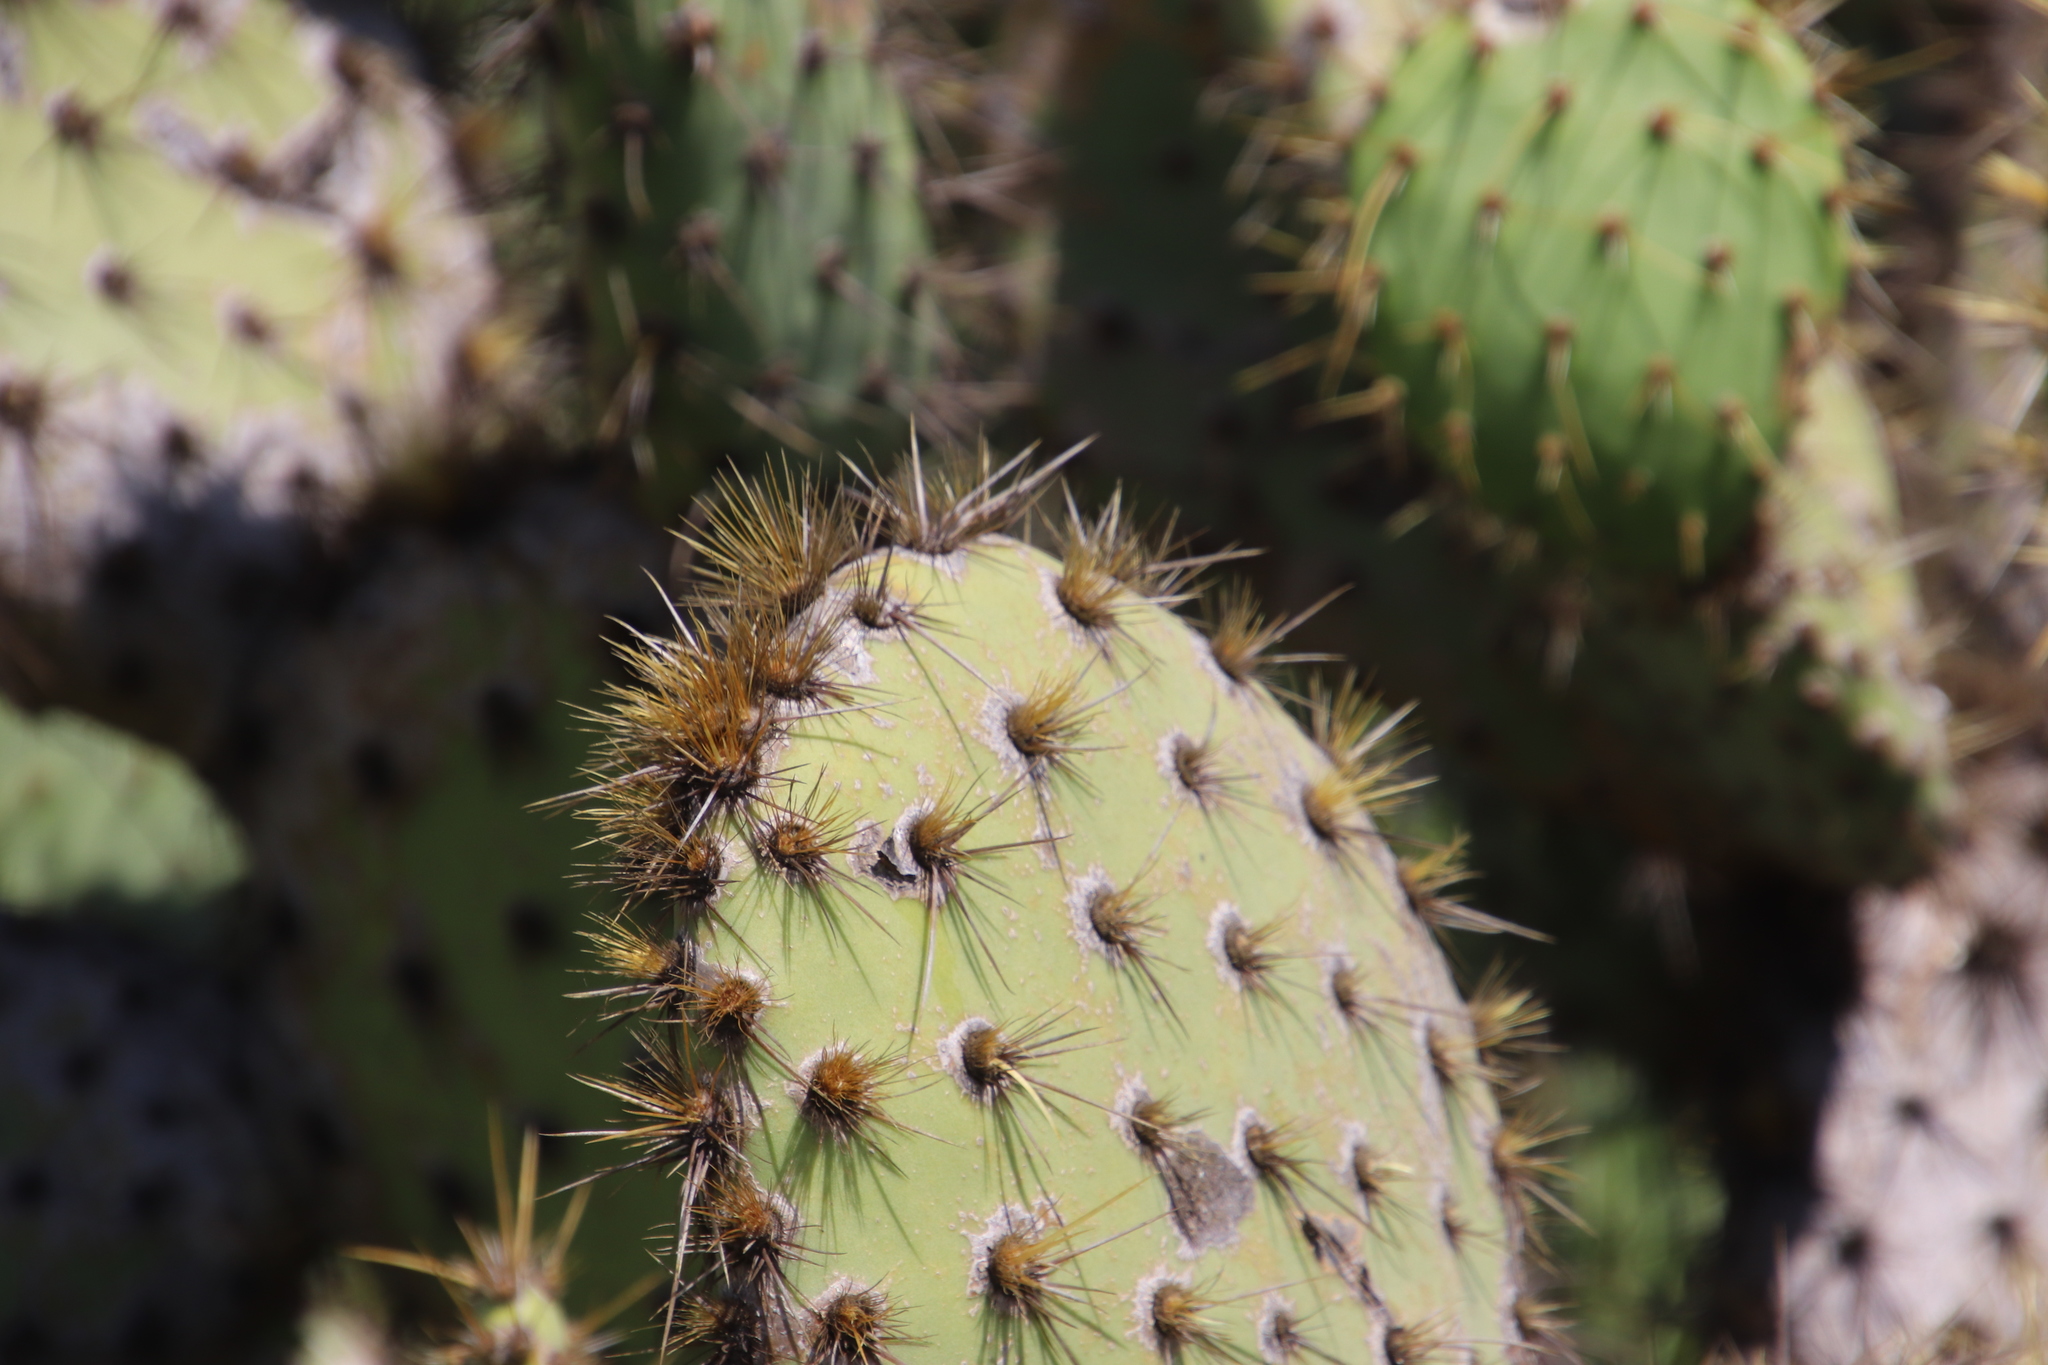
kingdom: Plantae
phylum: Tracheophyta
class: Magnoliopsida
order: Caryophyllales
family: Cactaceae
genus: Opuntia
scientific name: Opuntia oricola
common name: Chaparral prickly-pear
